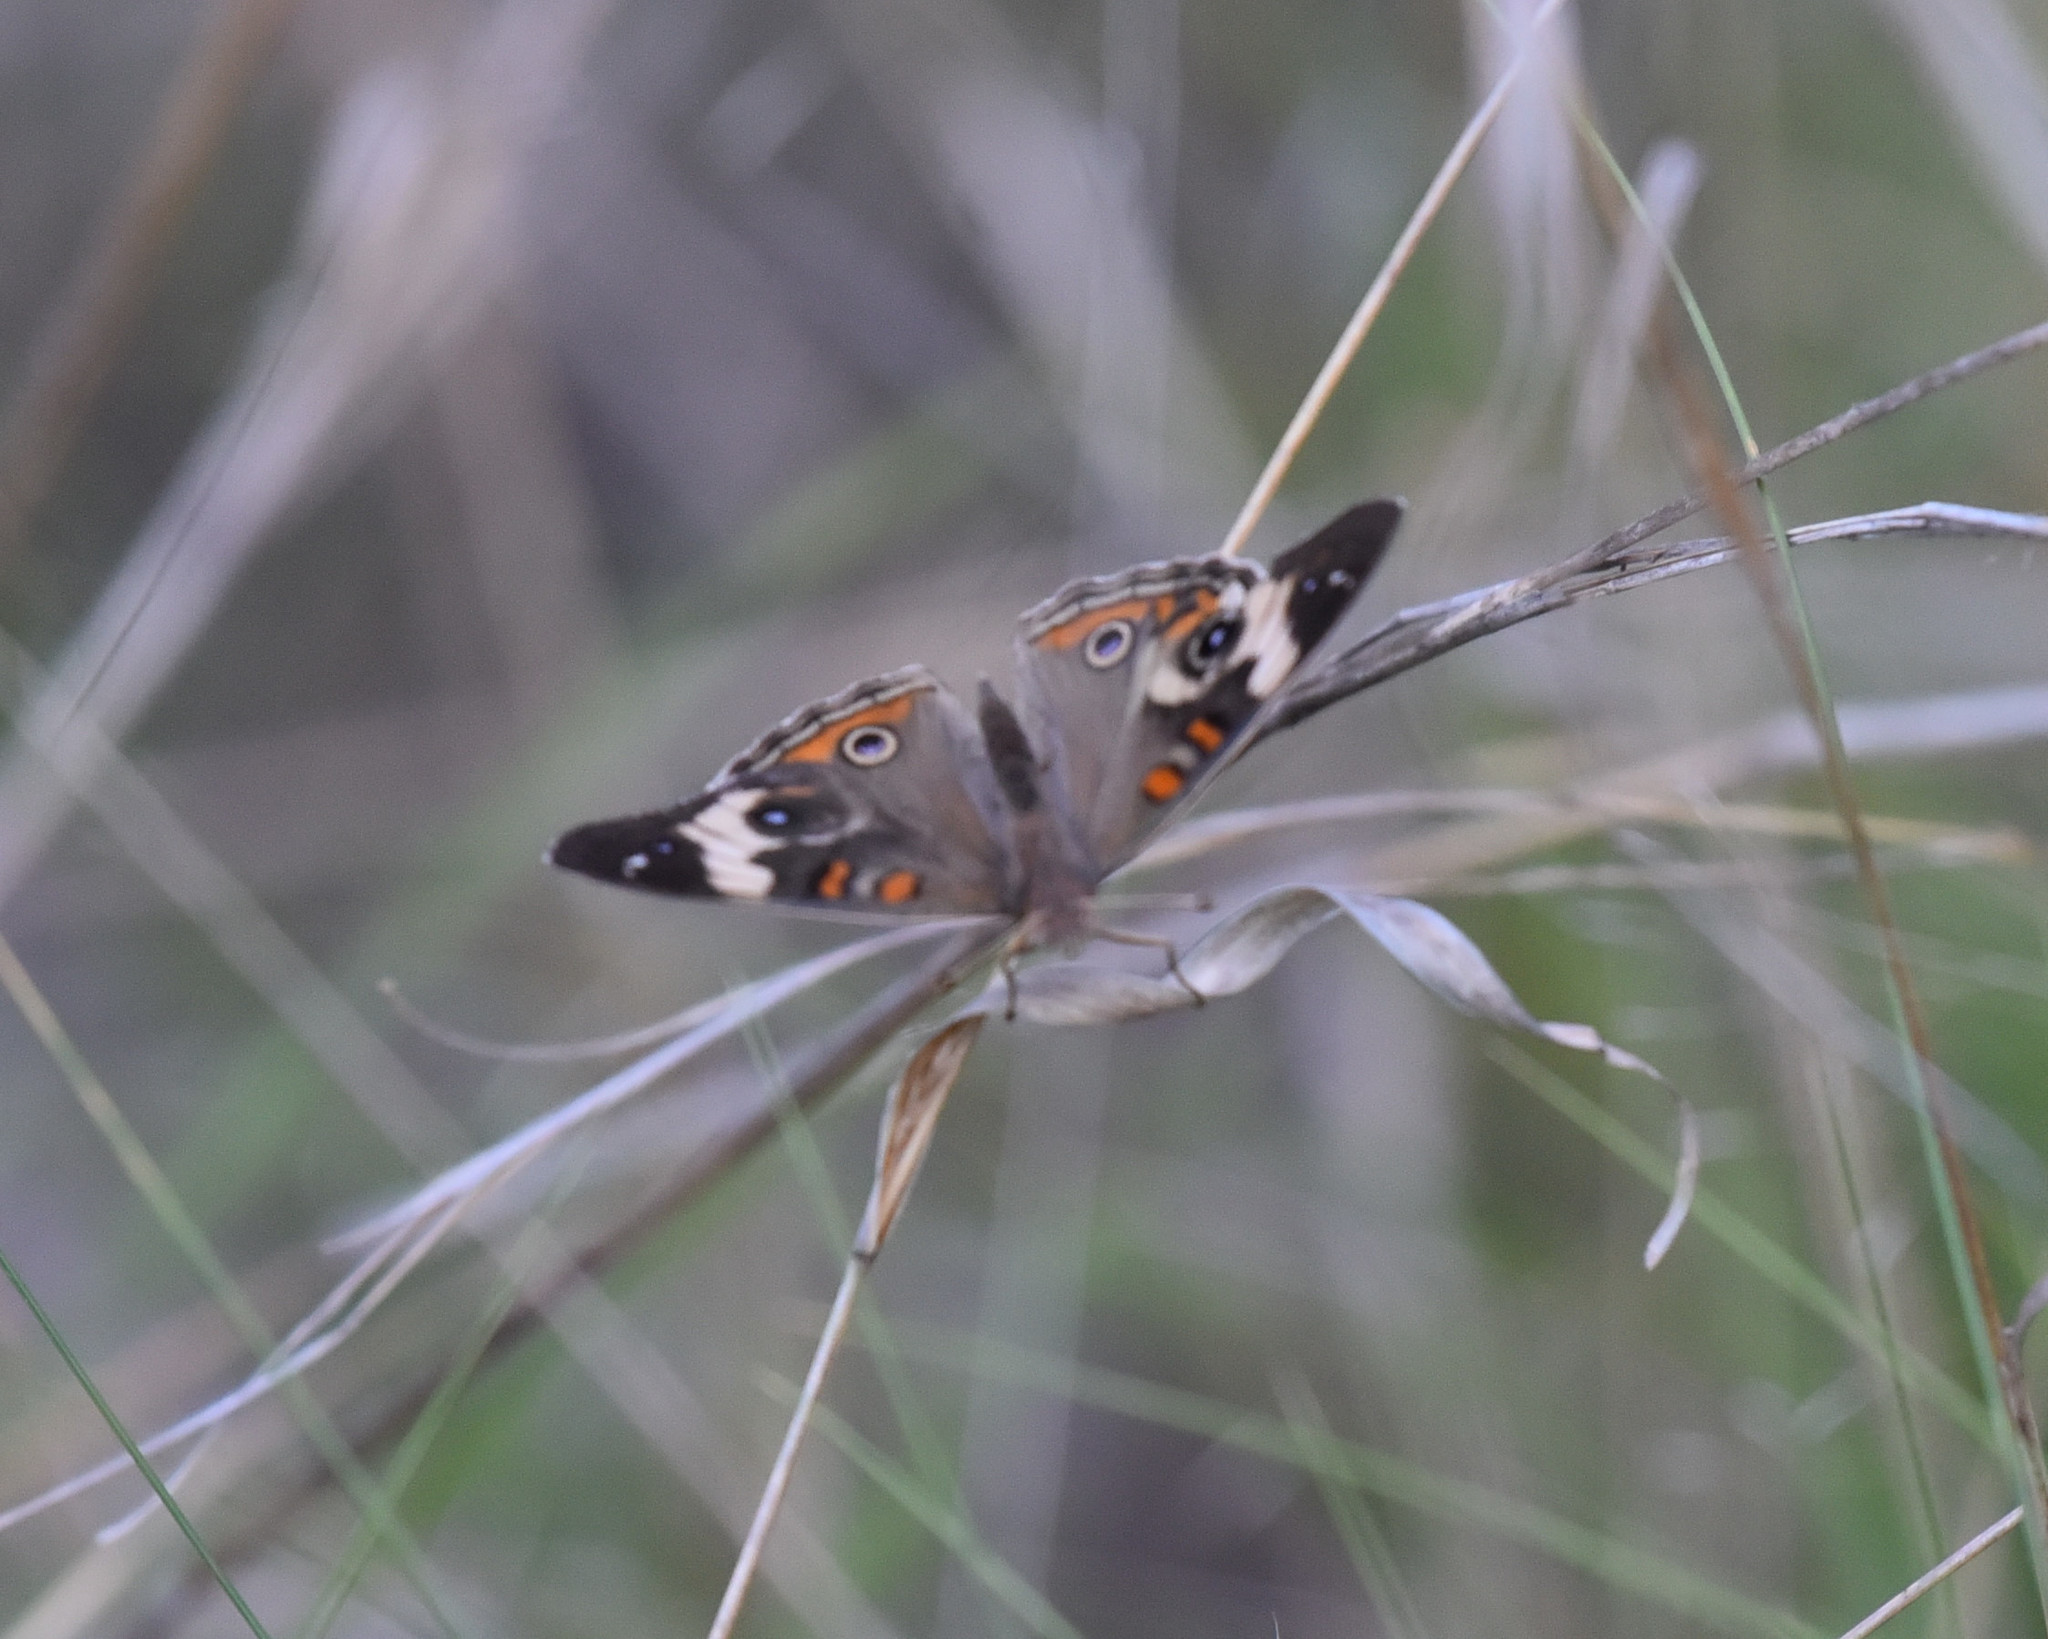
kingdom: Animalia
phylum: Arthropoda
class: Insecta
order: Lepidoptera
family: Nymphalidae
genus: Junonia
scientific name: Junonia coenia
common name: Common buckeye
